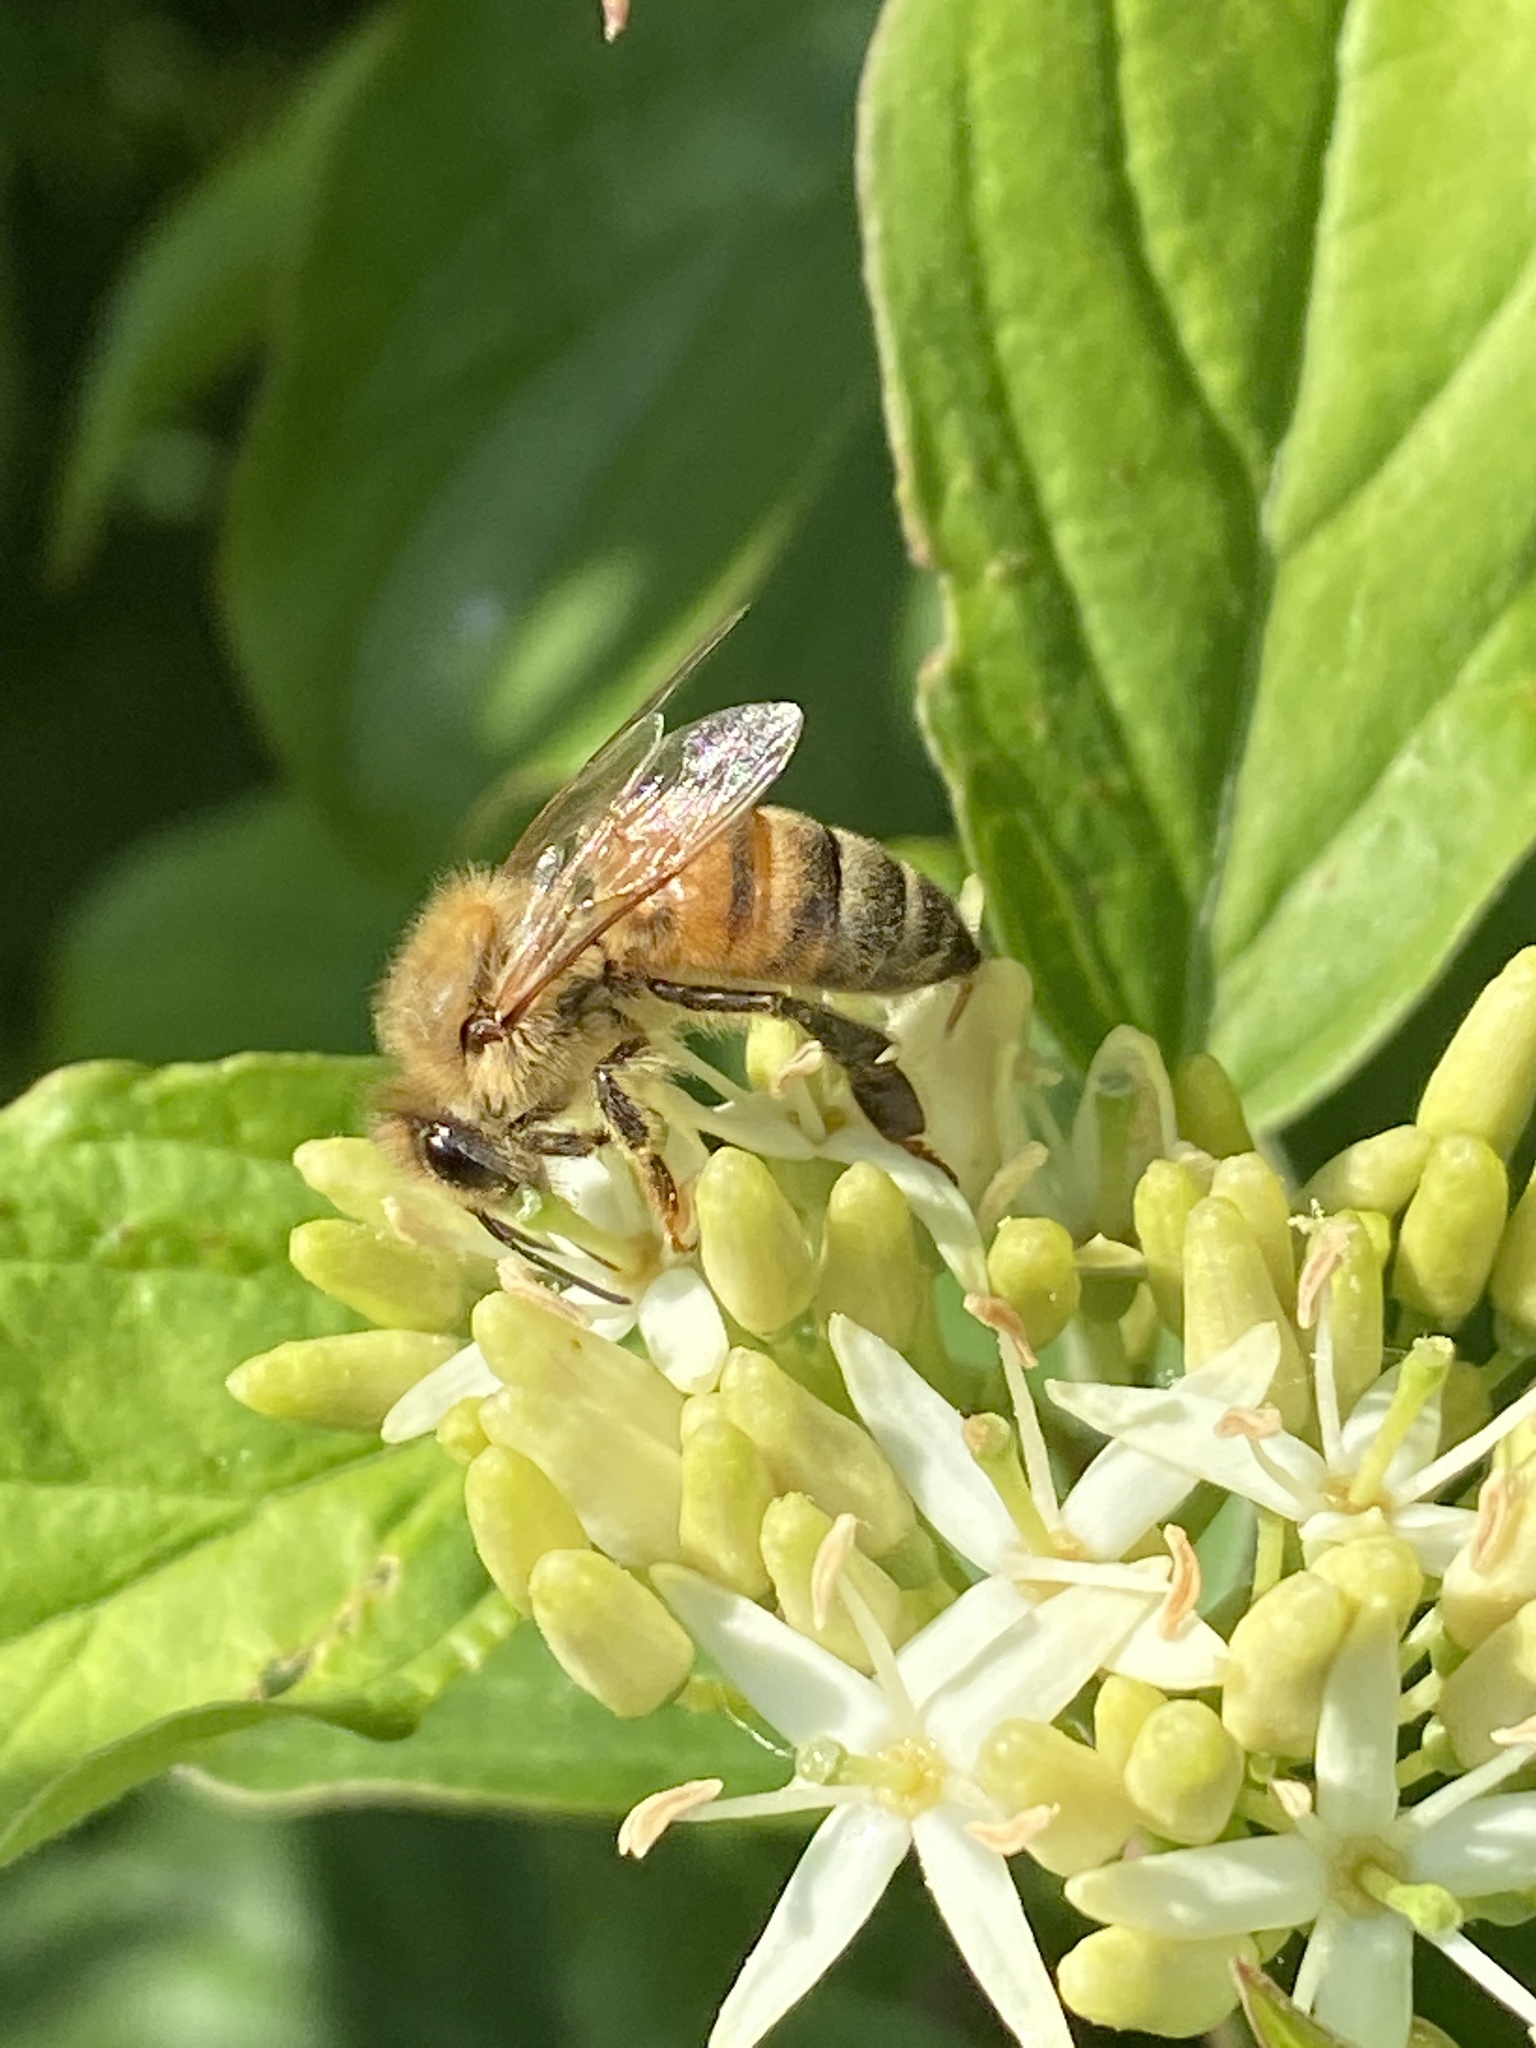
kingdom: Animalia
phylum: Arthropoda
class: Insecta
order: Hymenoptera
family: Apidae
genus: Apis
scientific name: Apis mellifera
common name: Honey bee
